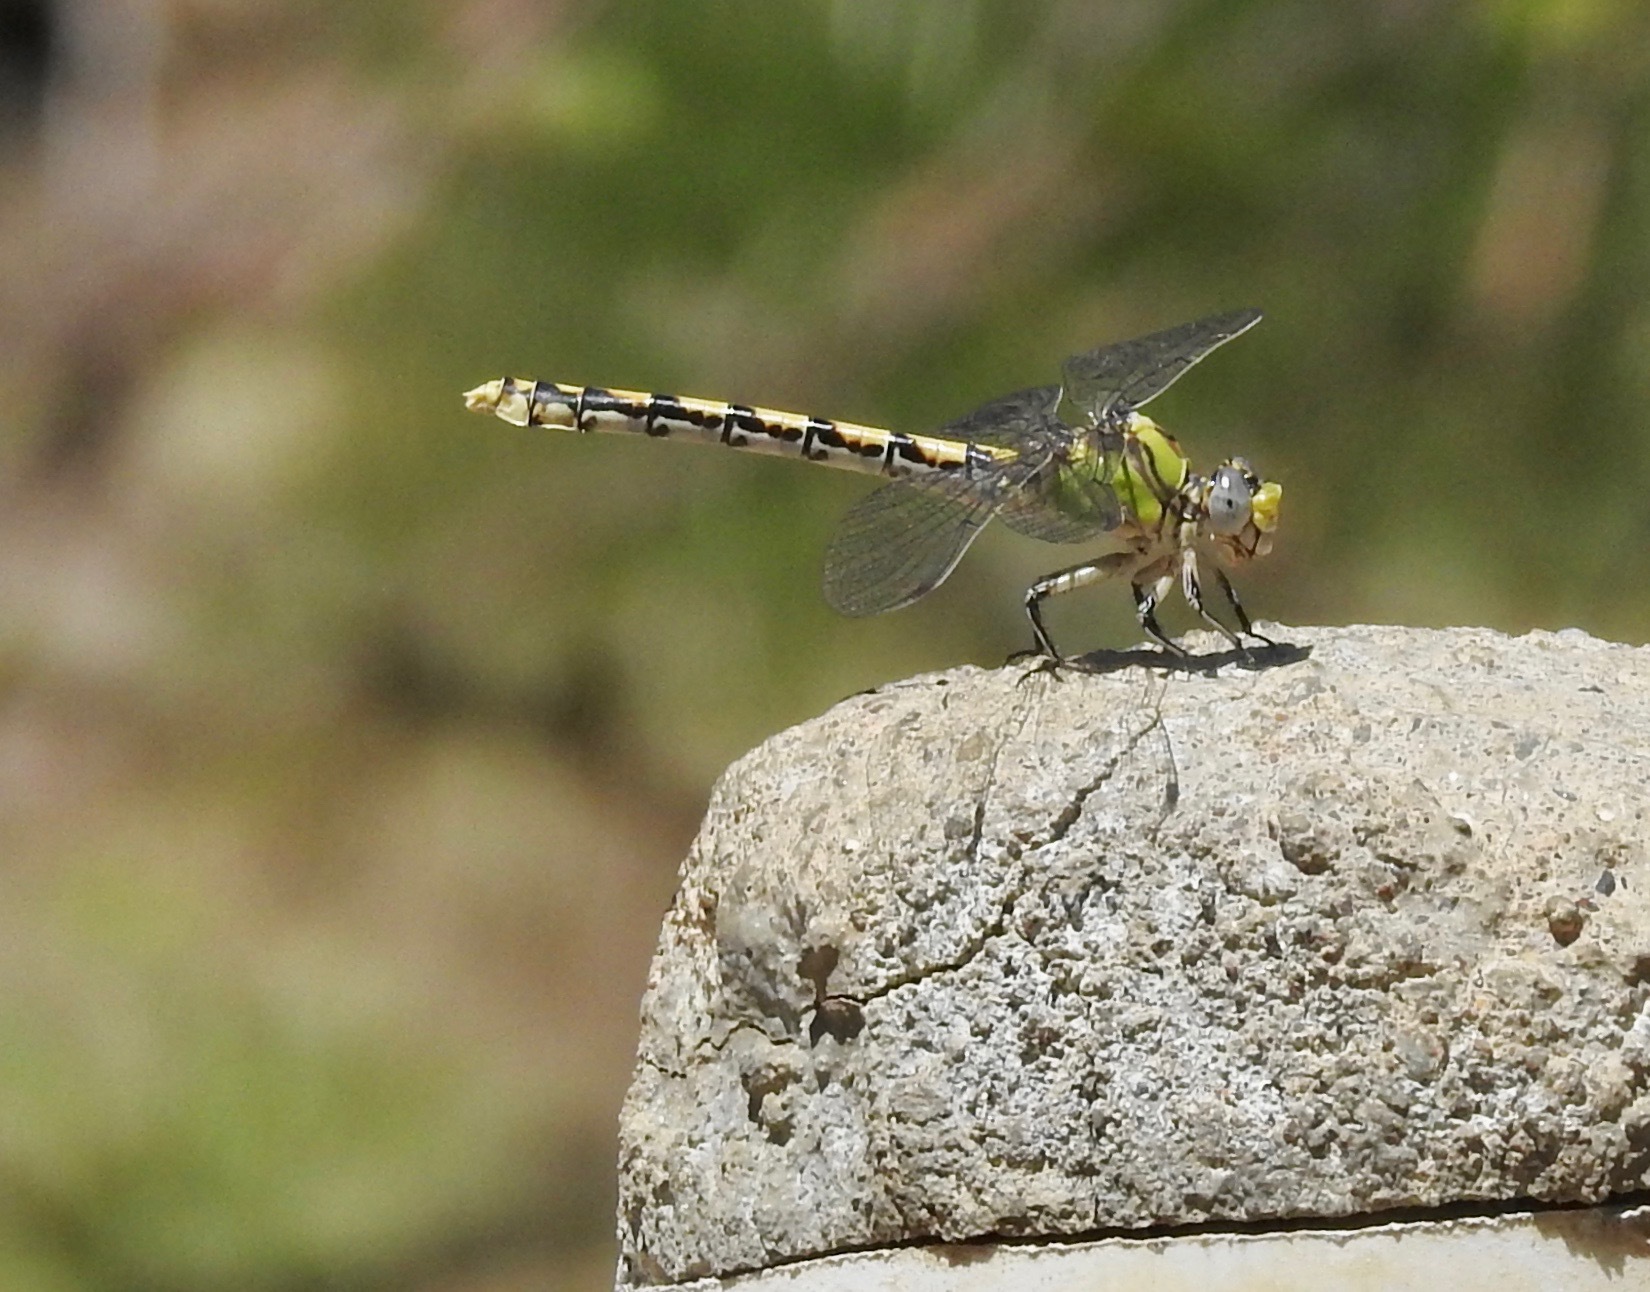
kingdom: Animalia
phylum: Arthropoda
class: Insecta
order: Odonata
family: Gomphidae
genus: Ophiogomphus
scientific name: Ophiogomphus occidentis
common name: Sinuous snaketail
